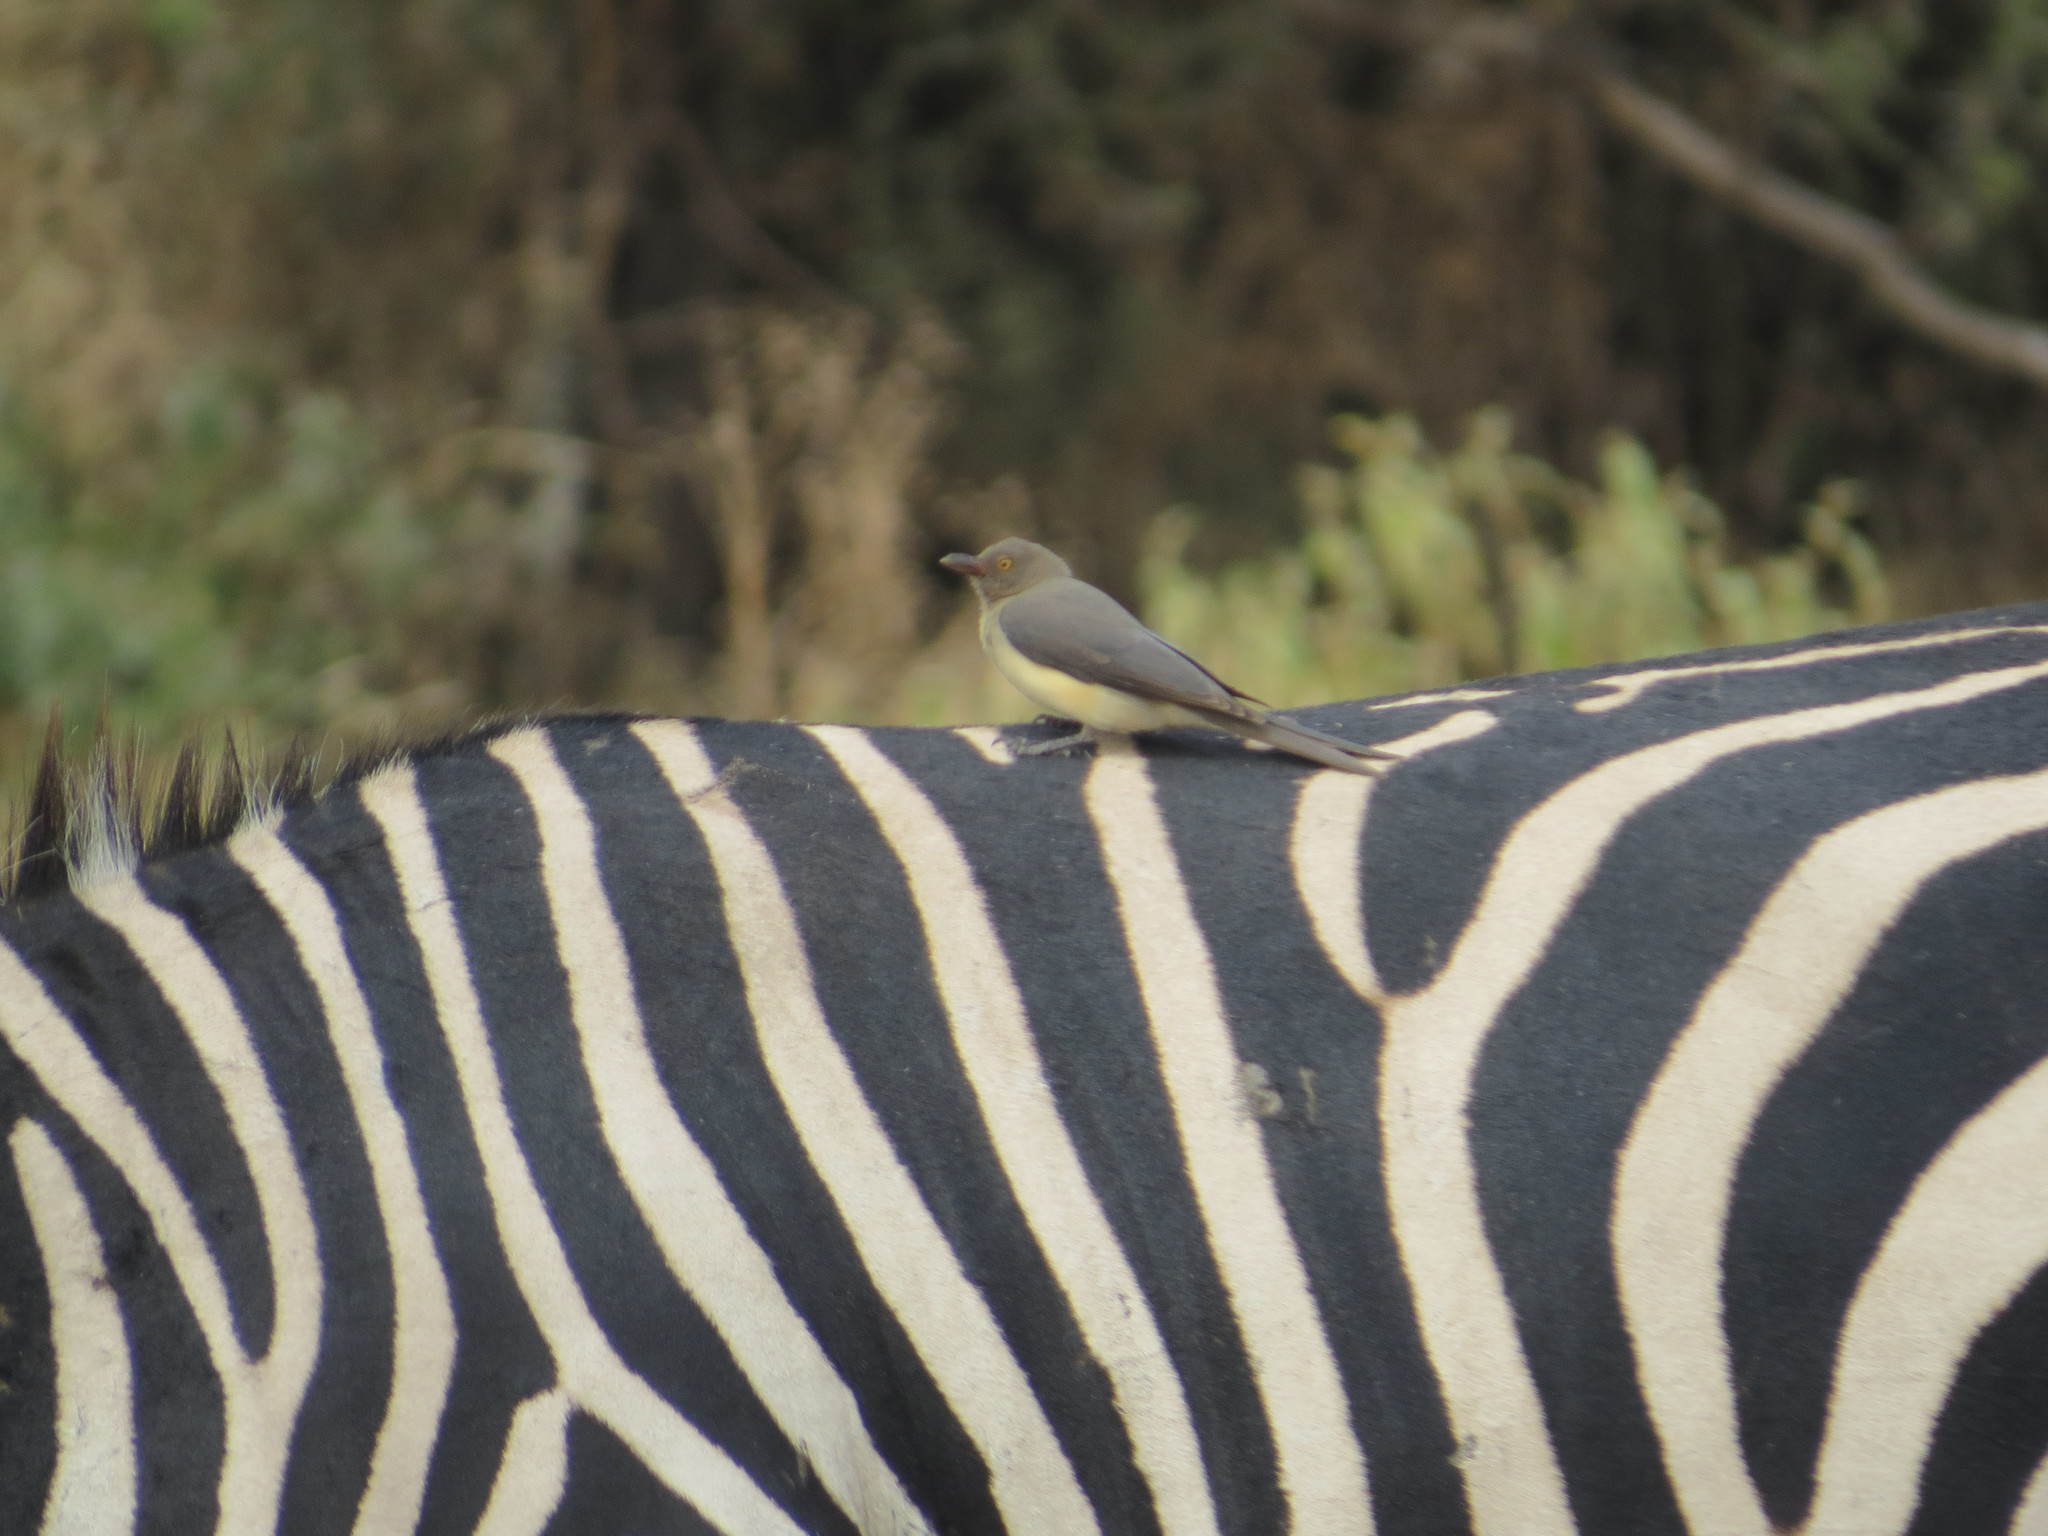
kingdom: Animalia
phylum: Chordata
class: Aves
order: Passeriformes
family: Buphagidae
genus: Buphagus
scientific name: Buphagus erythrorhynchus
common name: Red-billed oxpecker
